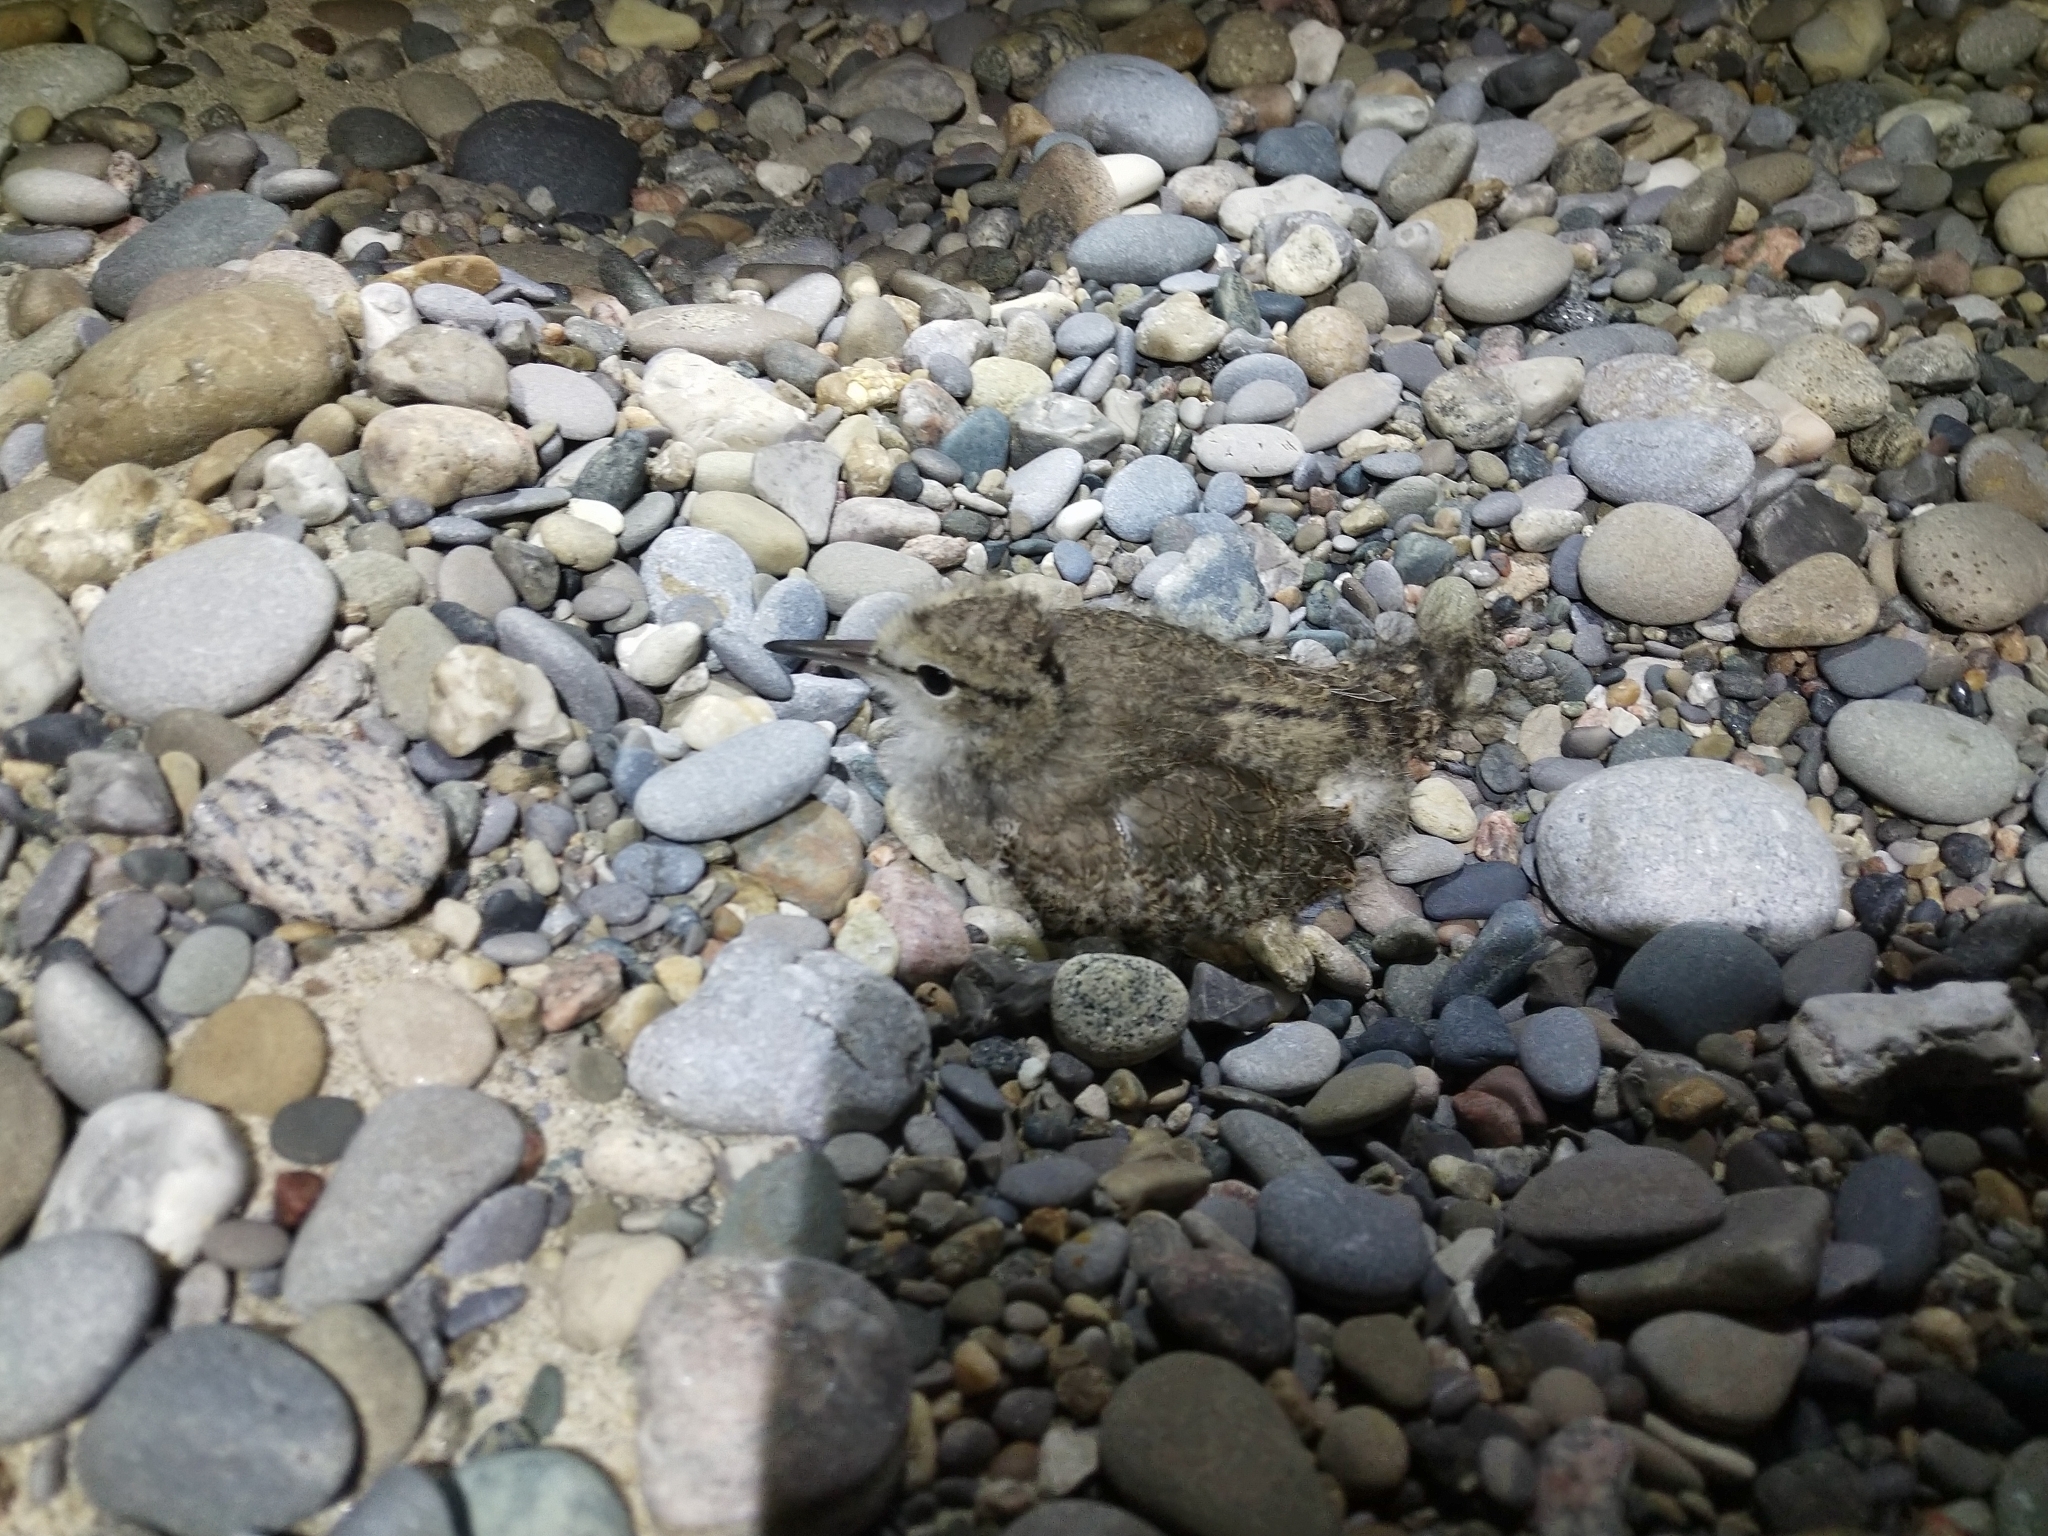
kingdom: Animalia
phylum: Chordata
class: Aves
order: Charadriiformes
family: Scolopacidae
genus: Actitis
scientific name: Actitis macularius
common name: Spotted sandpiper
